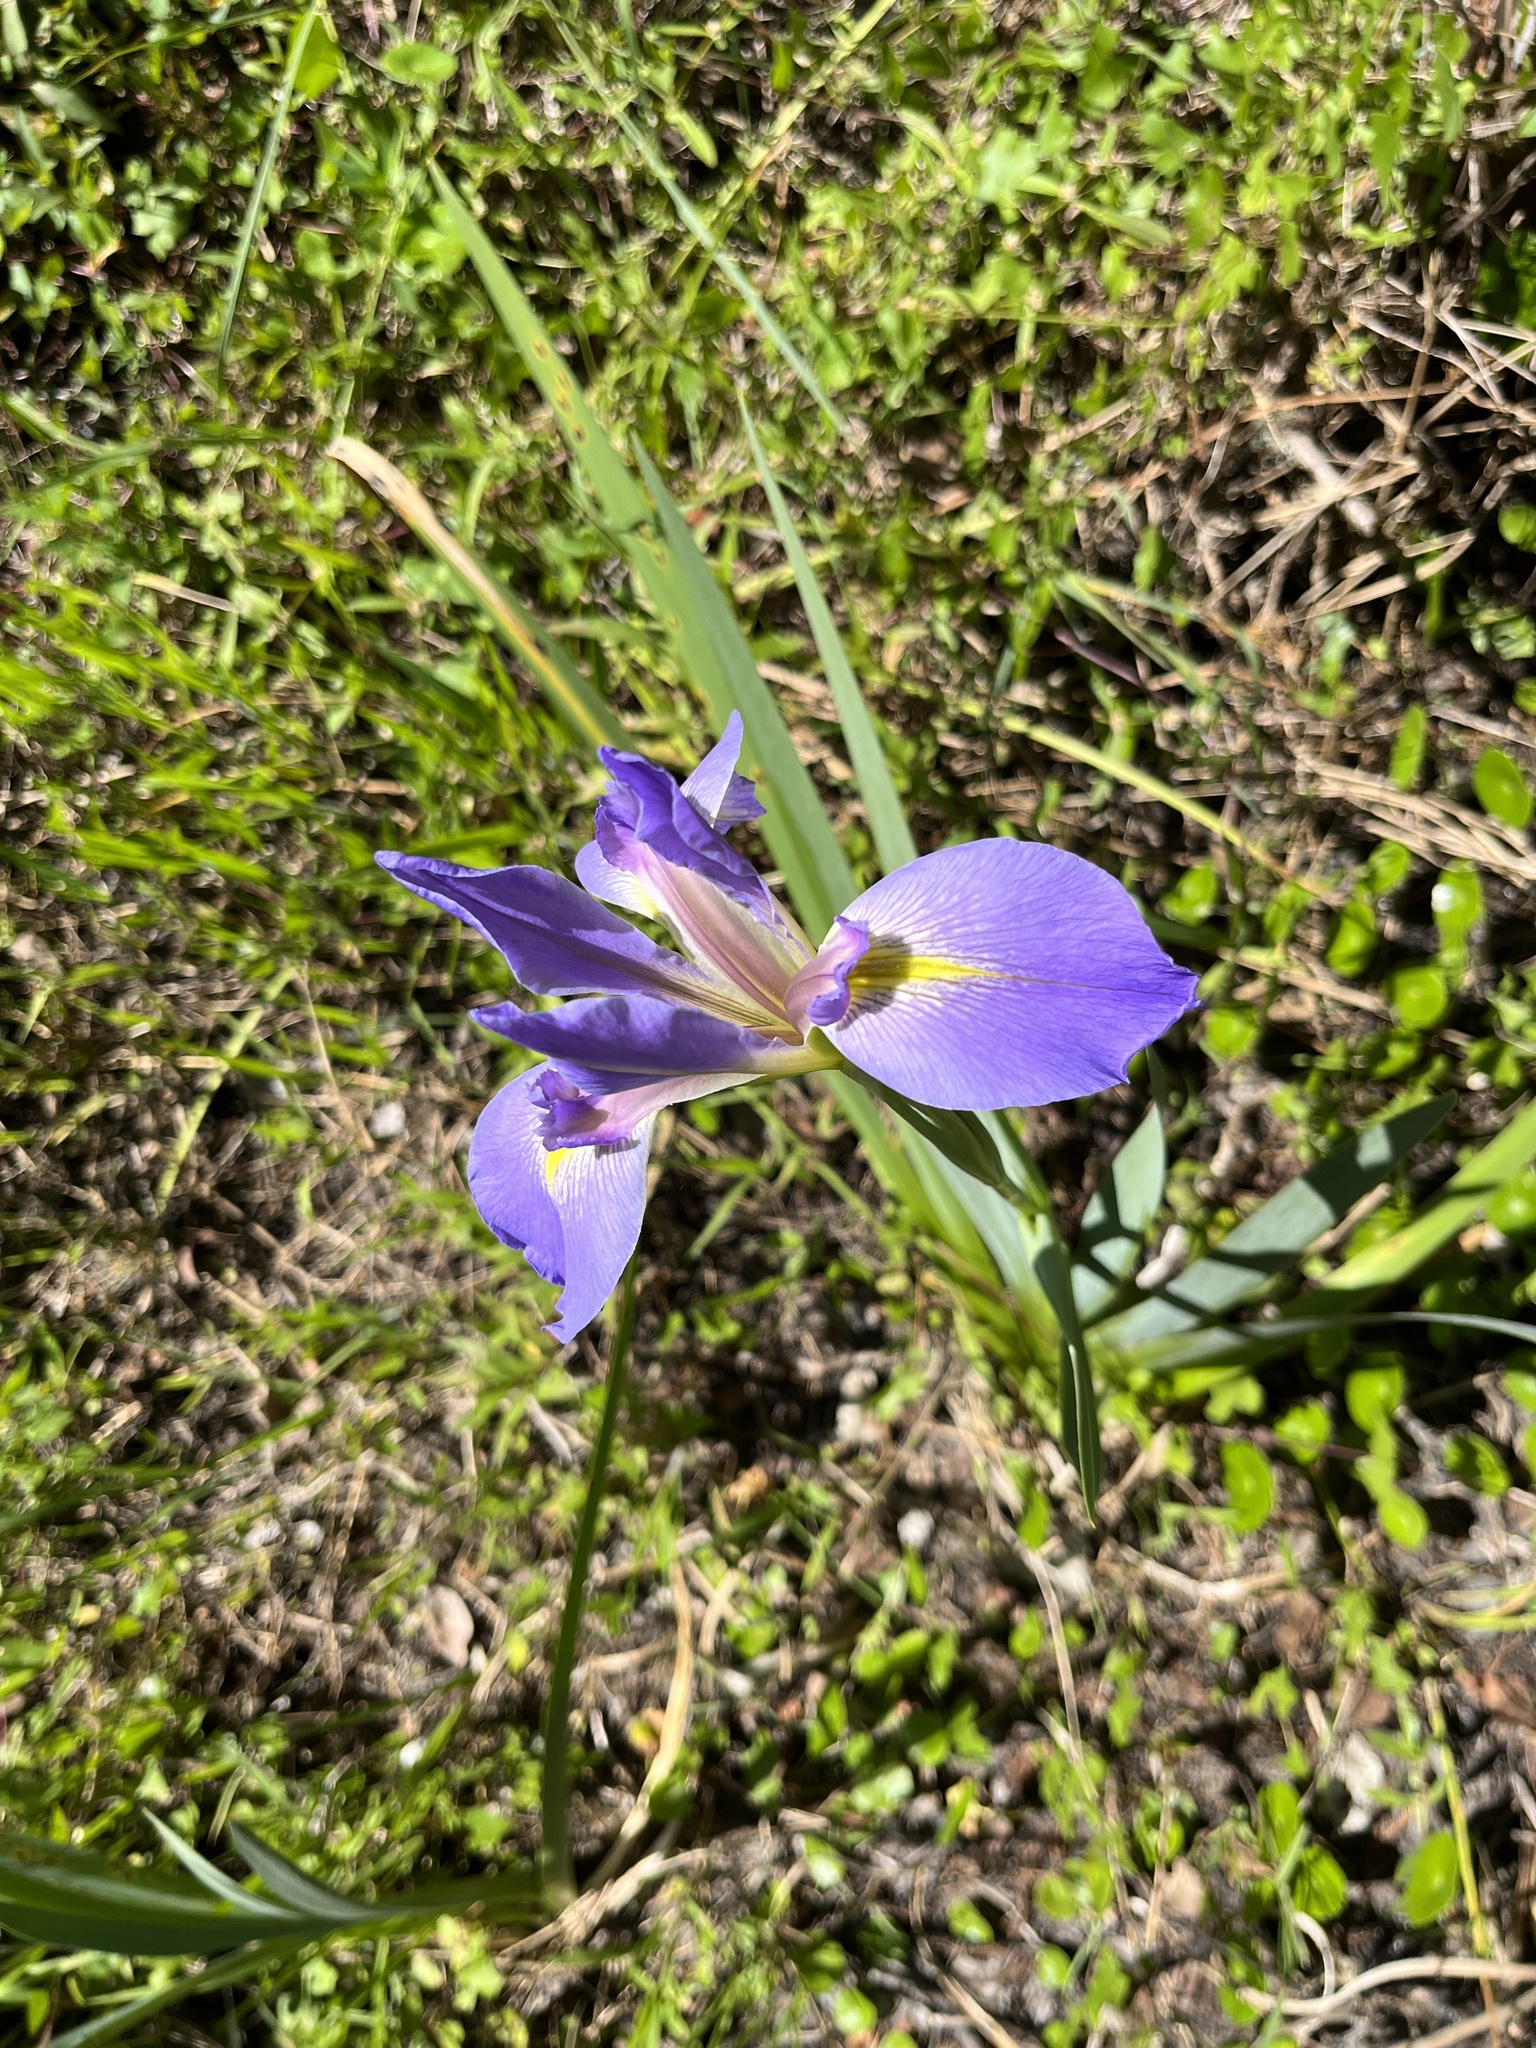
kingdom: Plantae
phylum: Tracheophyta
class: Liliopsida
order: Asparagales
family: Iridaceae
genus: Iris
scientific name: Iris savannarum
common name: Prairie iris
